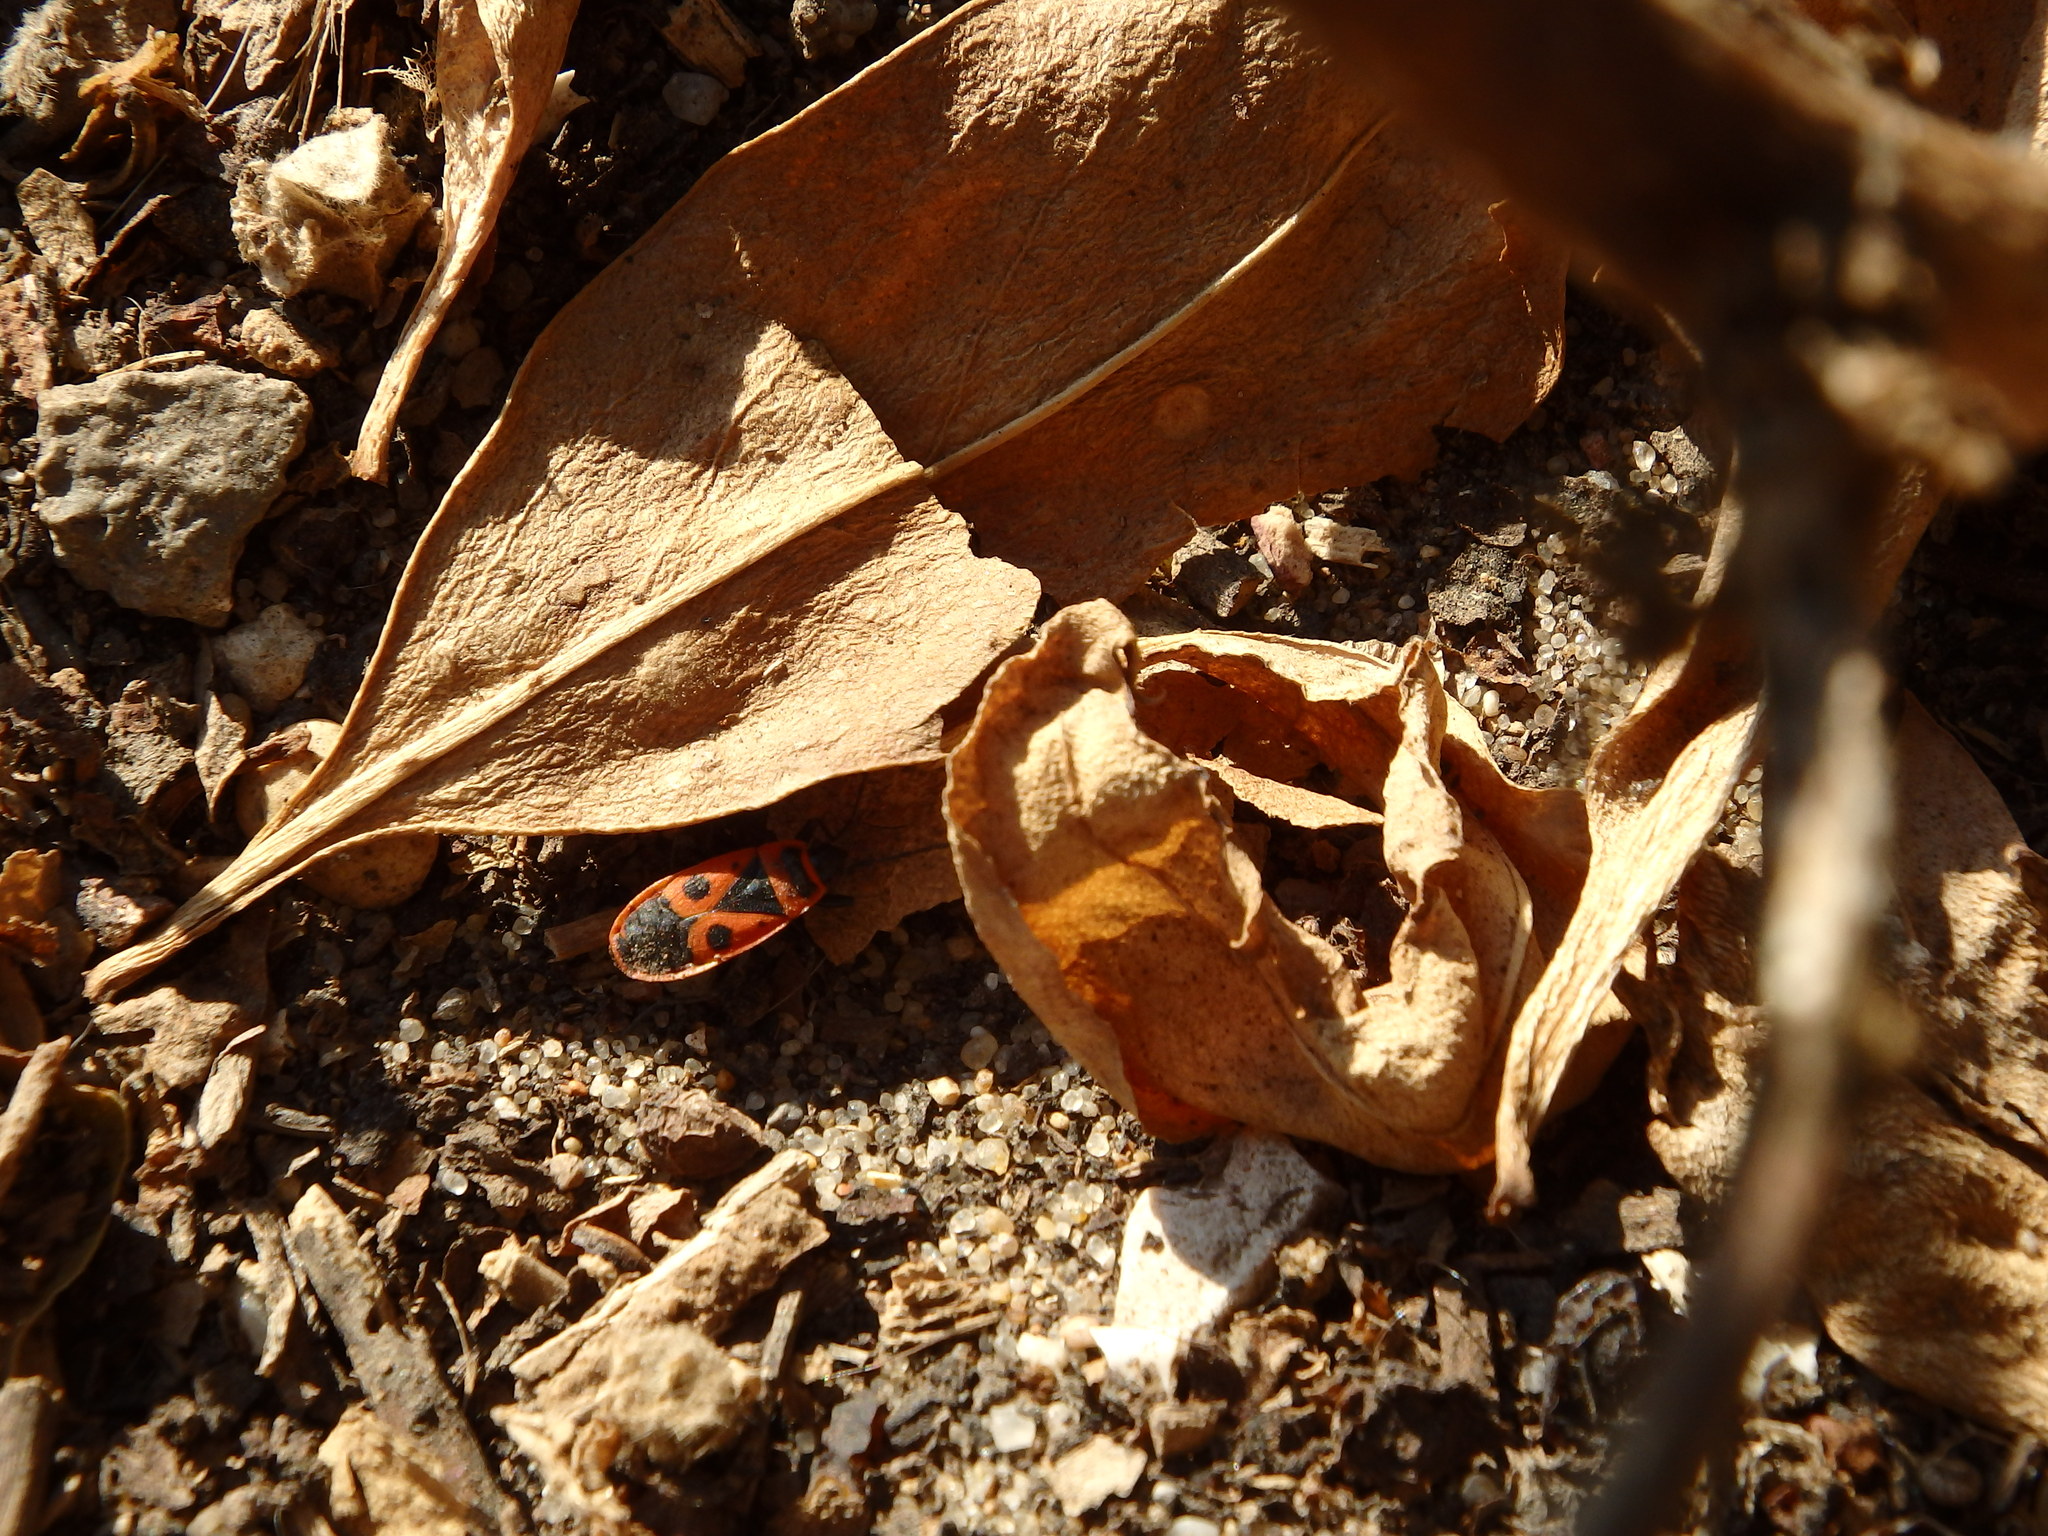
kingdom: Animalia
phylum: Arthropoda
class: Insecta
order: Hemiptera
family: Pyrrhocoridae
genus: Pyrrhocoris
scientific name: Pyrrhocoris apterus
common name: Firebug
